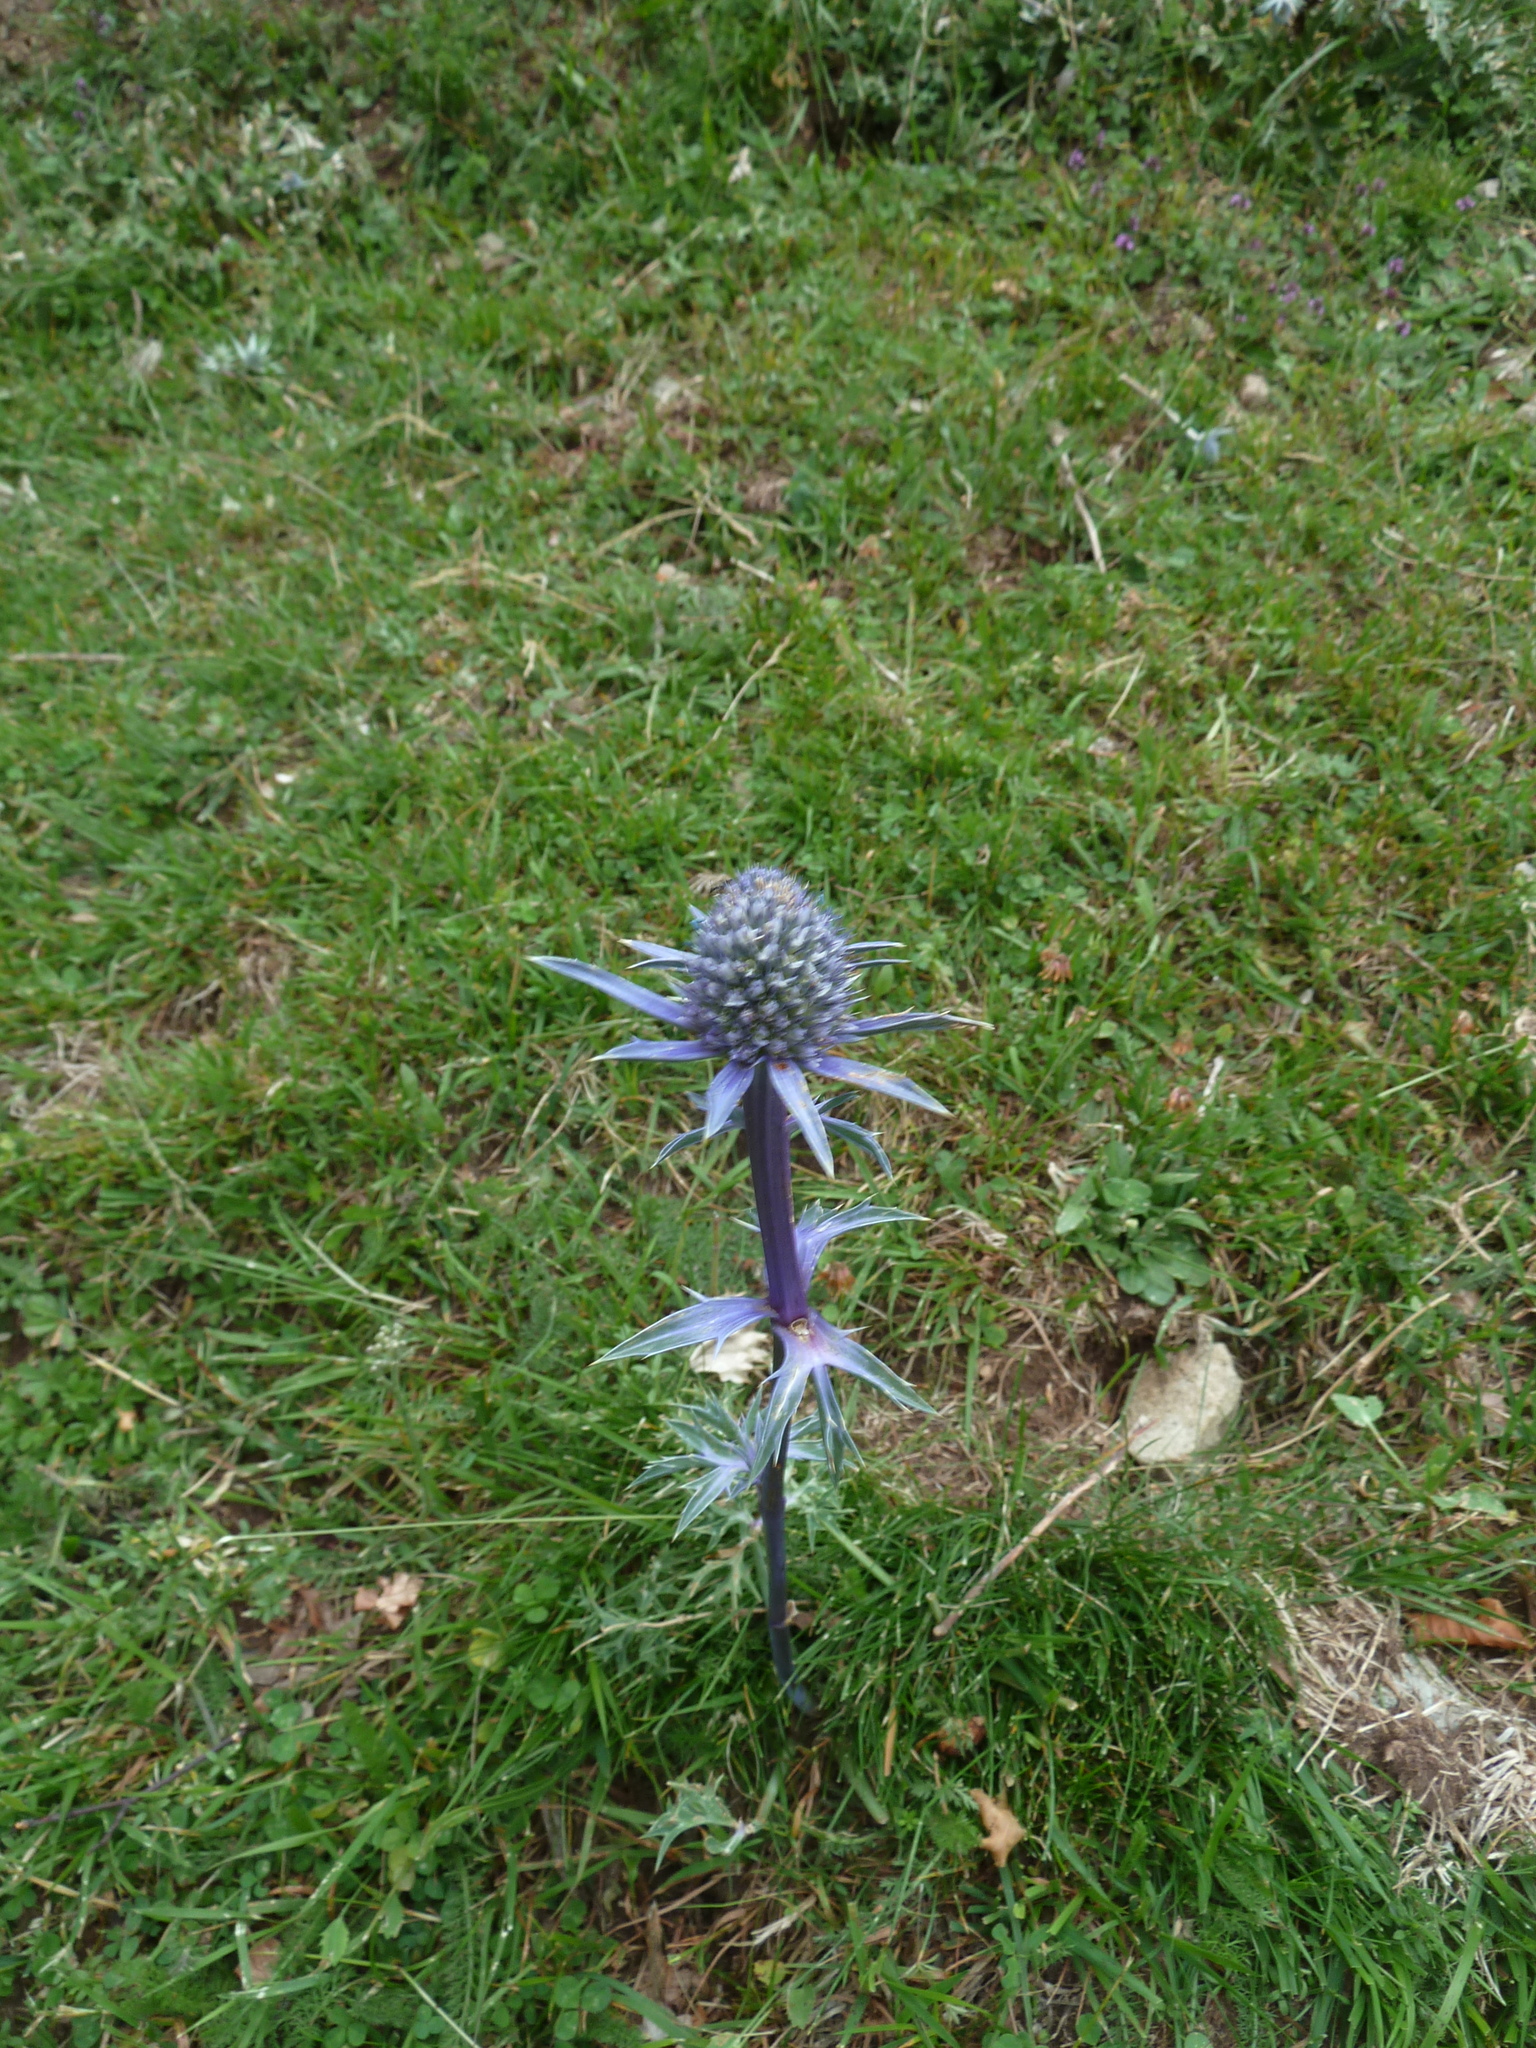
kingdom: Plantae
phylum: Tracheophyta
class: Magnoliopsida
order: Apiales
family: Apiaceae
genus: Eryngium
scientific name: Eryngium bourgatii
